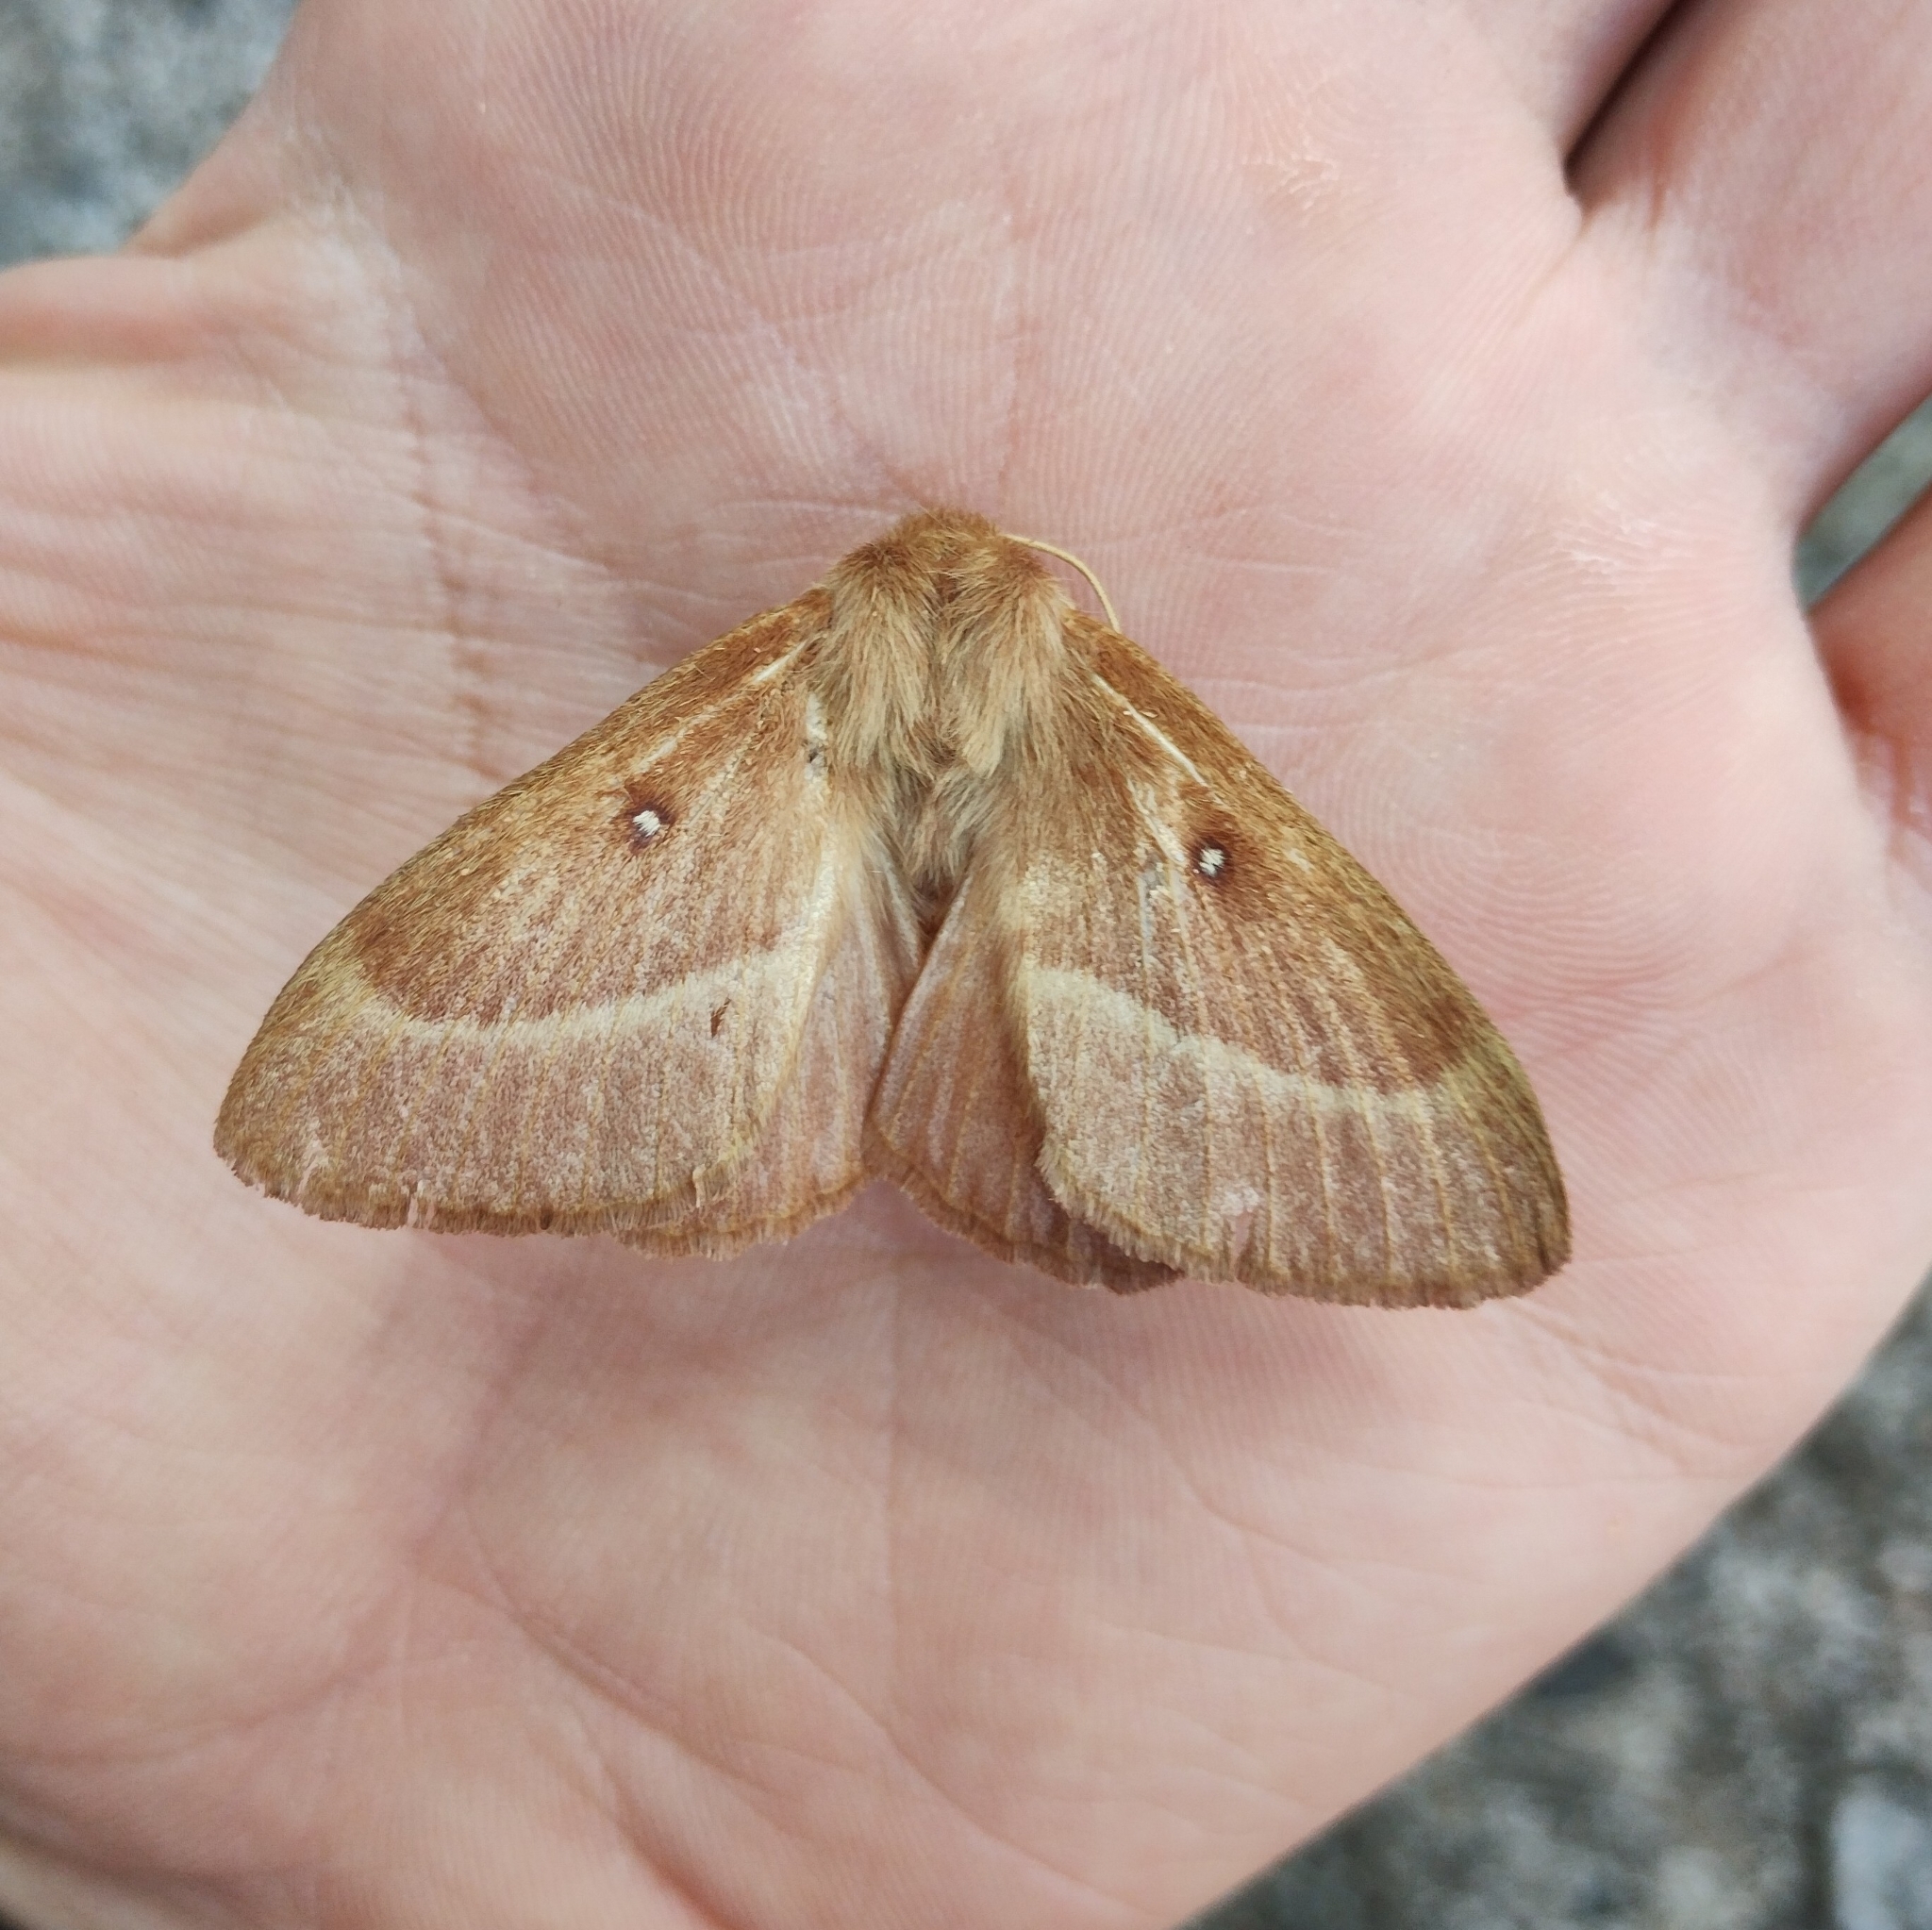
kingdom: Animalia
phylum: Arthropoda
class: Insecta
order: Lepidoptera
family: Lasiocampidae
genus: Lasiocampa
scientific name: Lasiocampa trifolii
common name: Grass eggar
